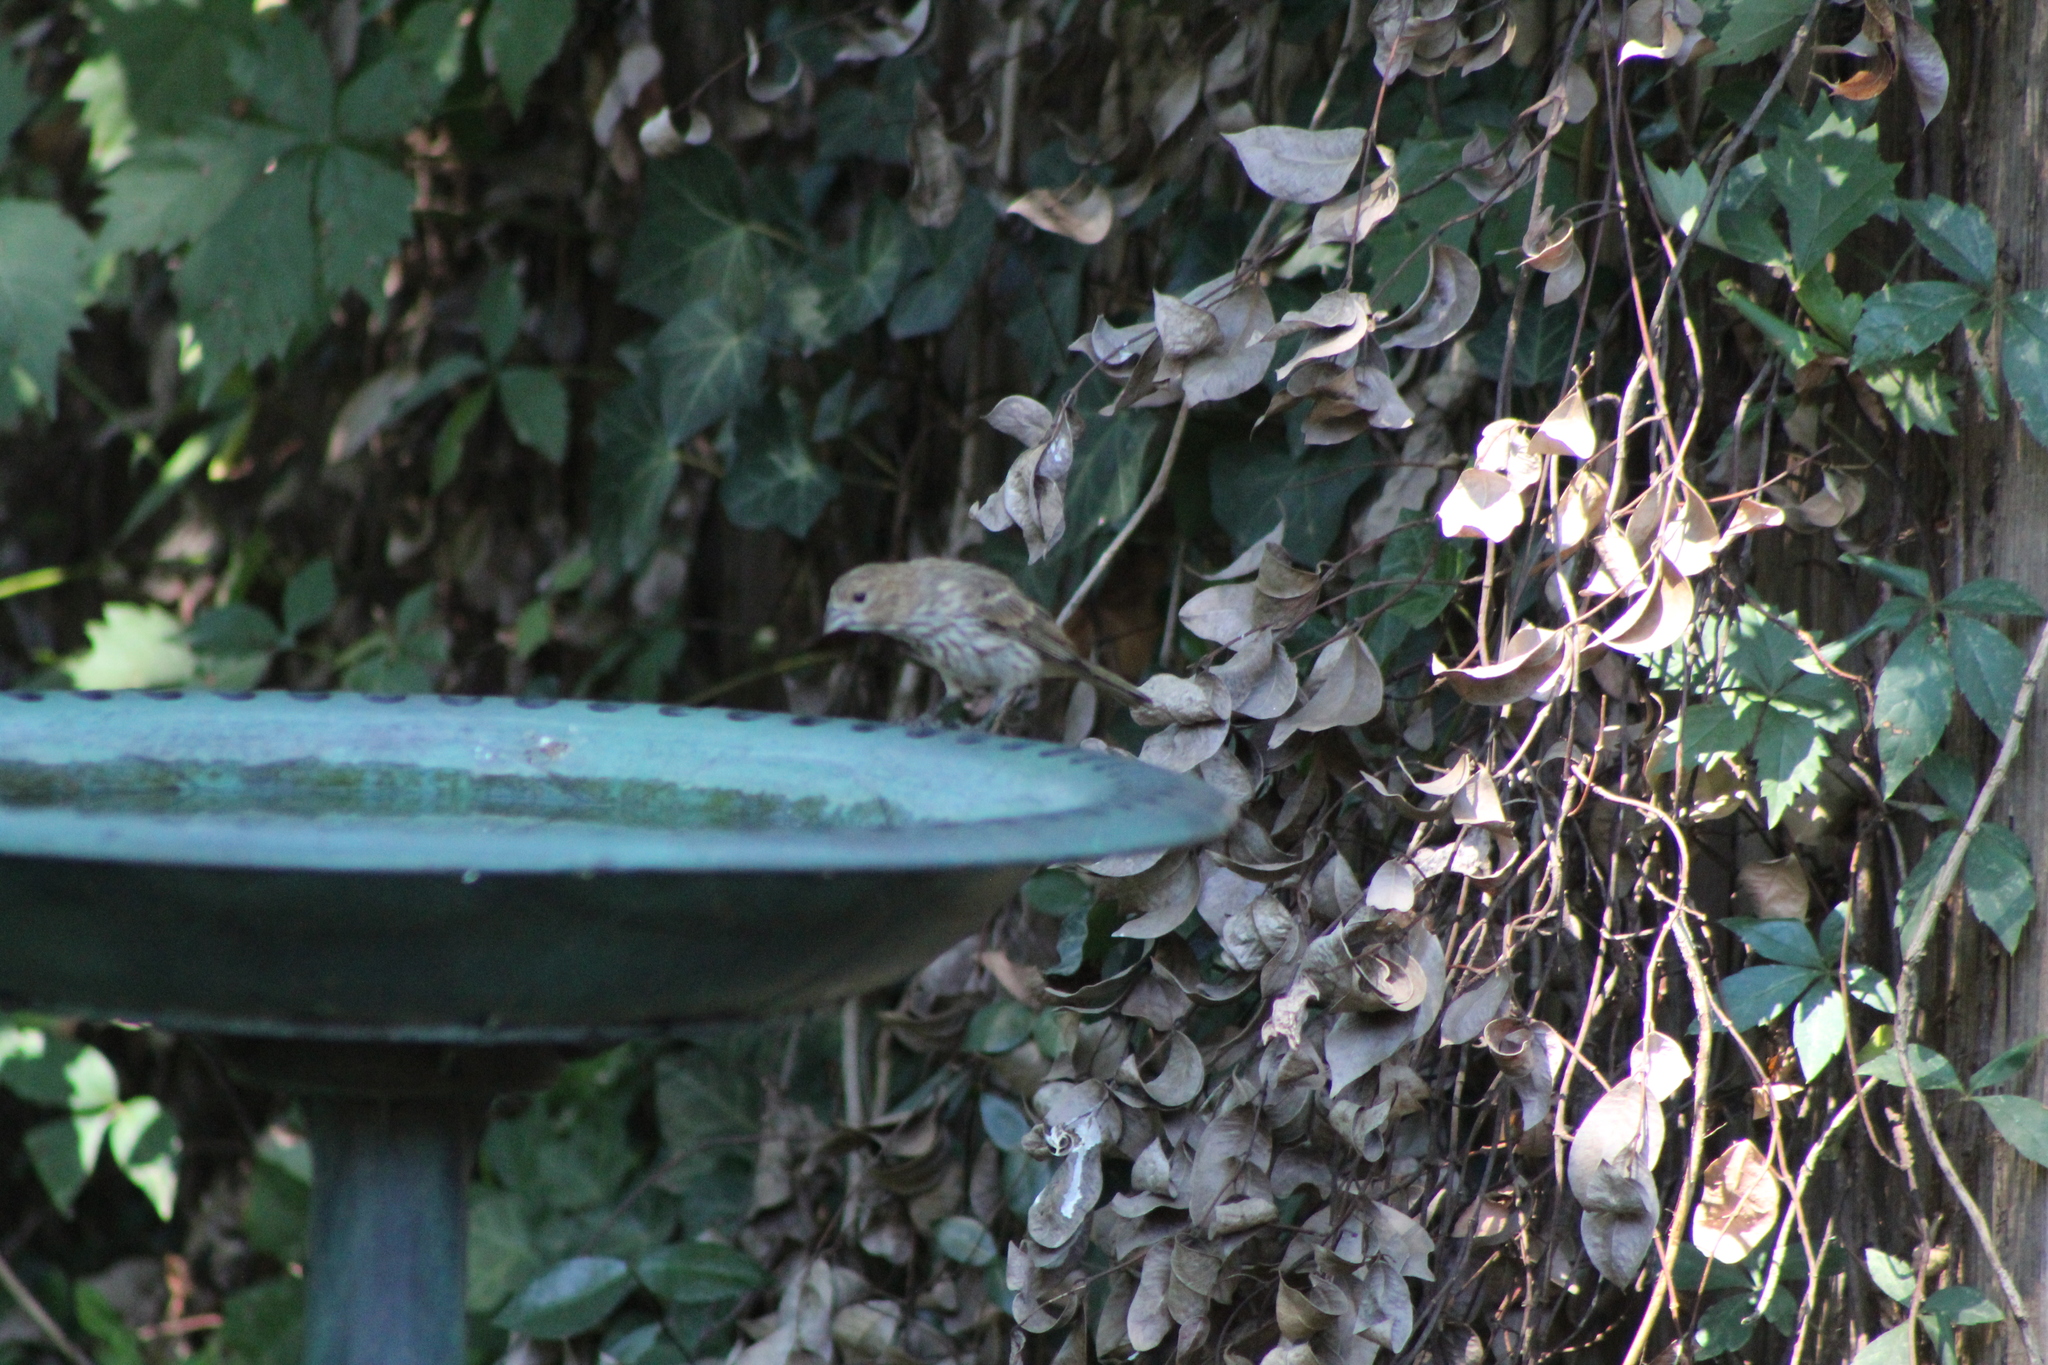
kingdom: Animalia
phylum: Chordata
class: Aves
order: Passeriformes
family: Fringillidae
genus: Haemorhous
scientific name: Haemorhous mexicanus
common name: House finch
